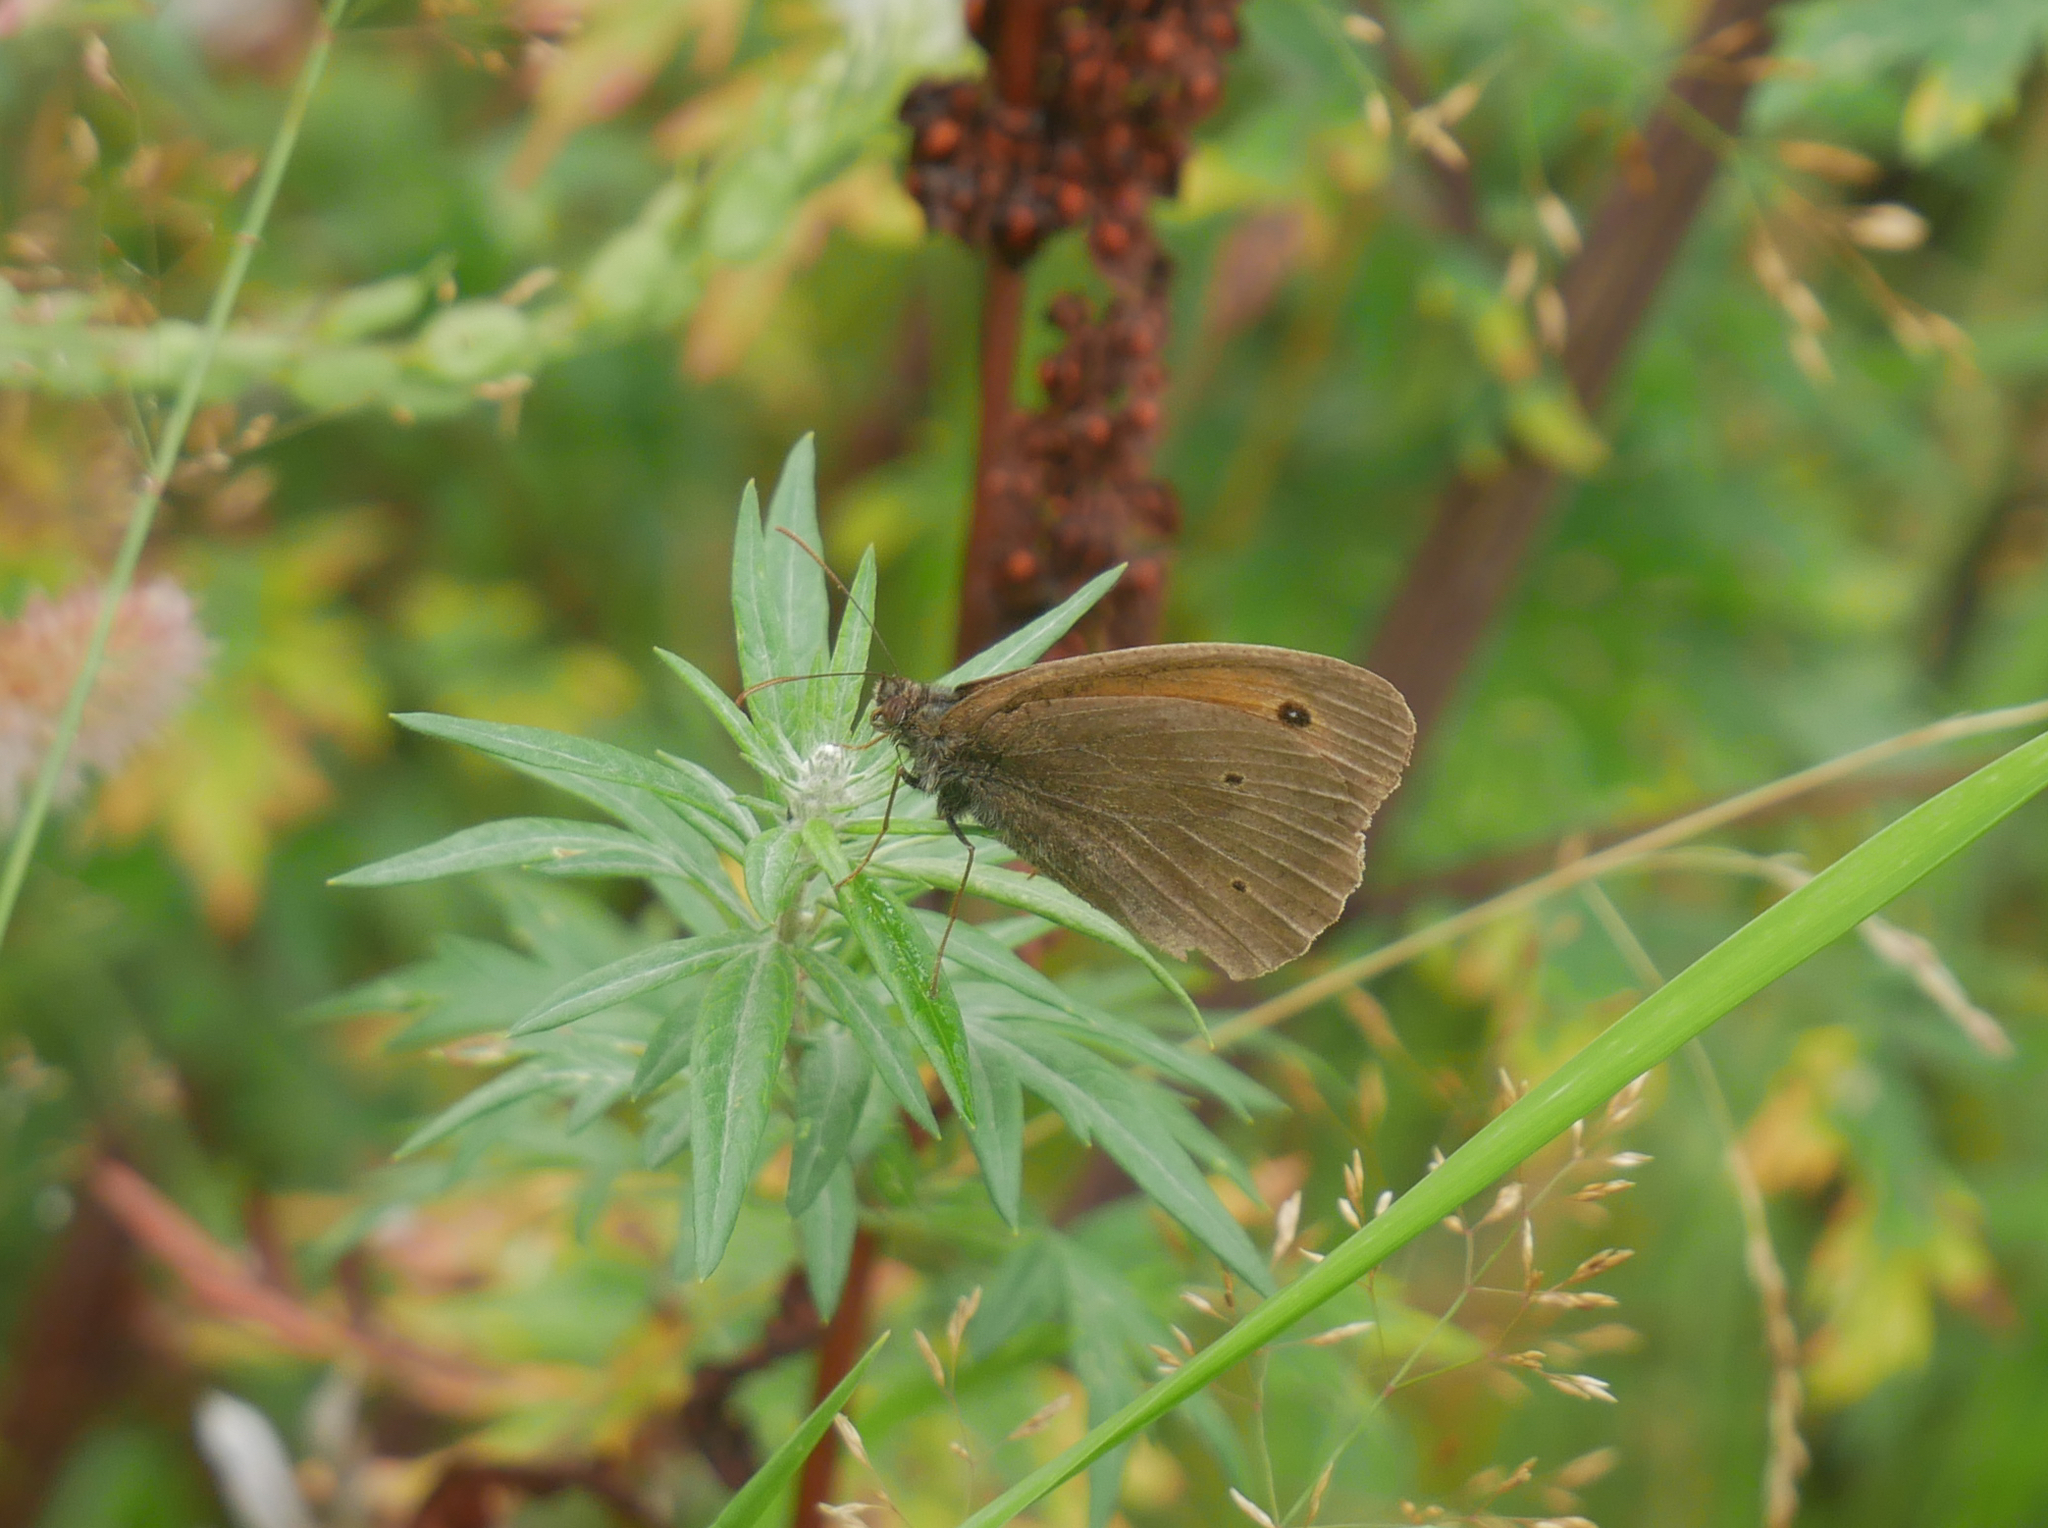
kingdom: Animalia
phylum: Arthropoda
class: Insecta
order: Lepidoptera
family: Nymphalidae
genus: Maniola
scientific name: Maniola jurtina
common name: Meadow brown
